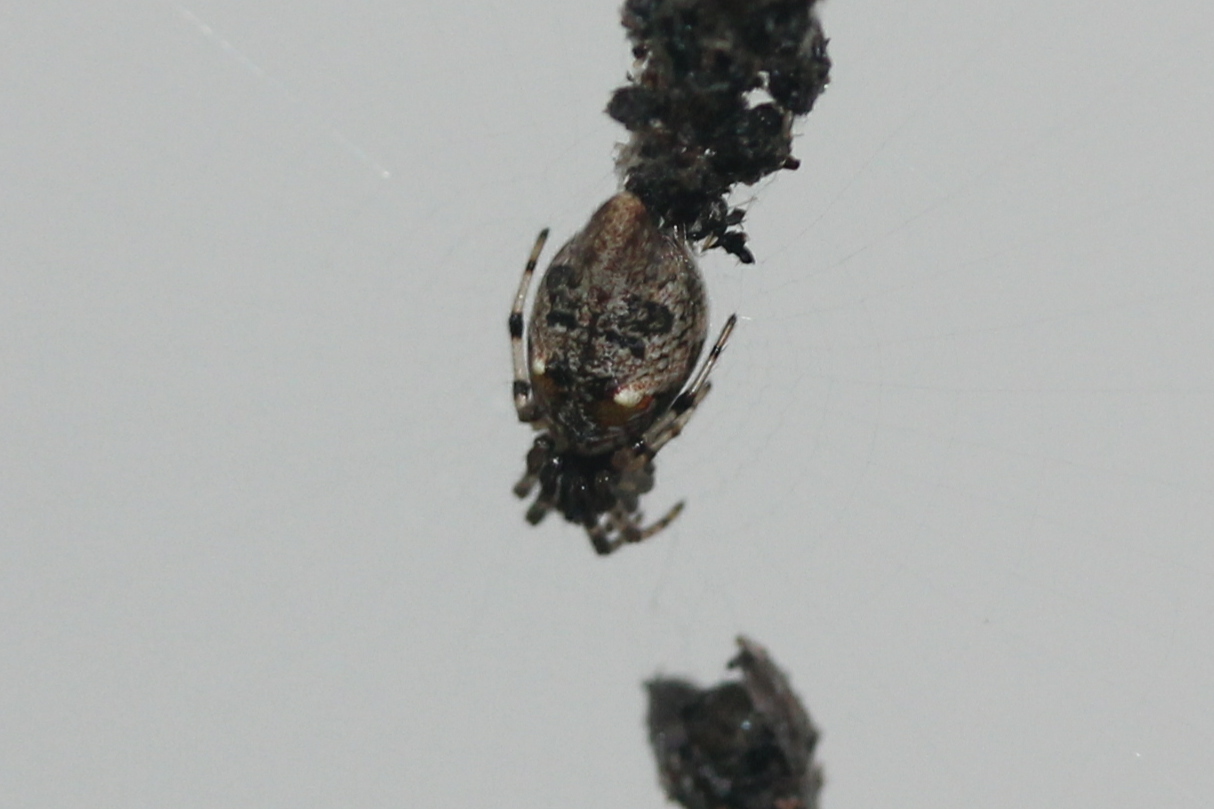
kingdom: Animalia
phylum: Arthropoda
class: Arachnida
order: Araneae
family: Araneidae
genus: Cyclosa
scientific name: Cyclosa turbinata
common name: Orb weavers
